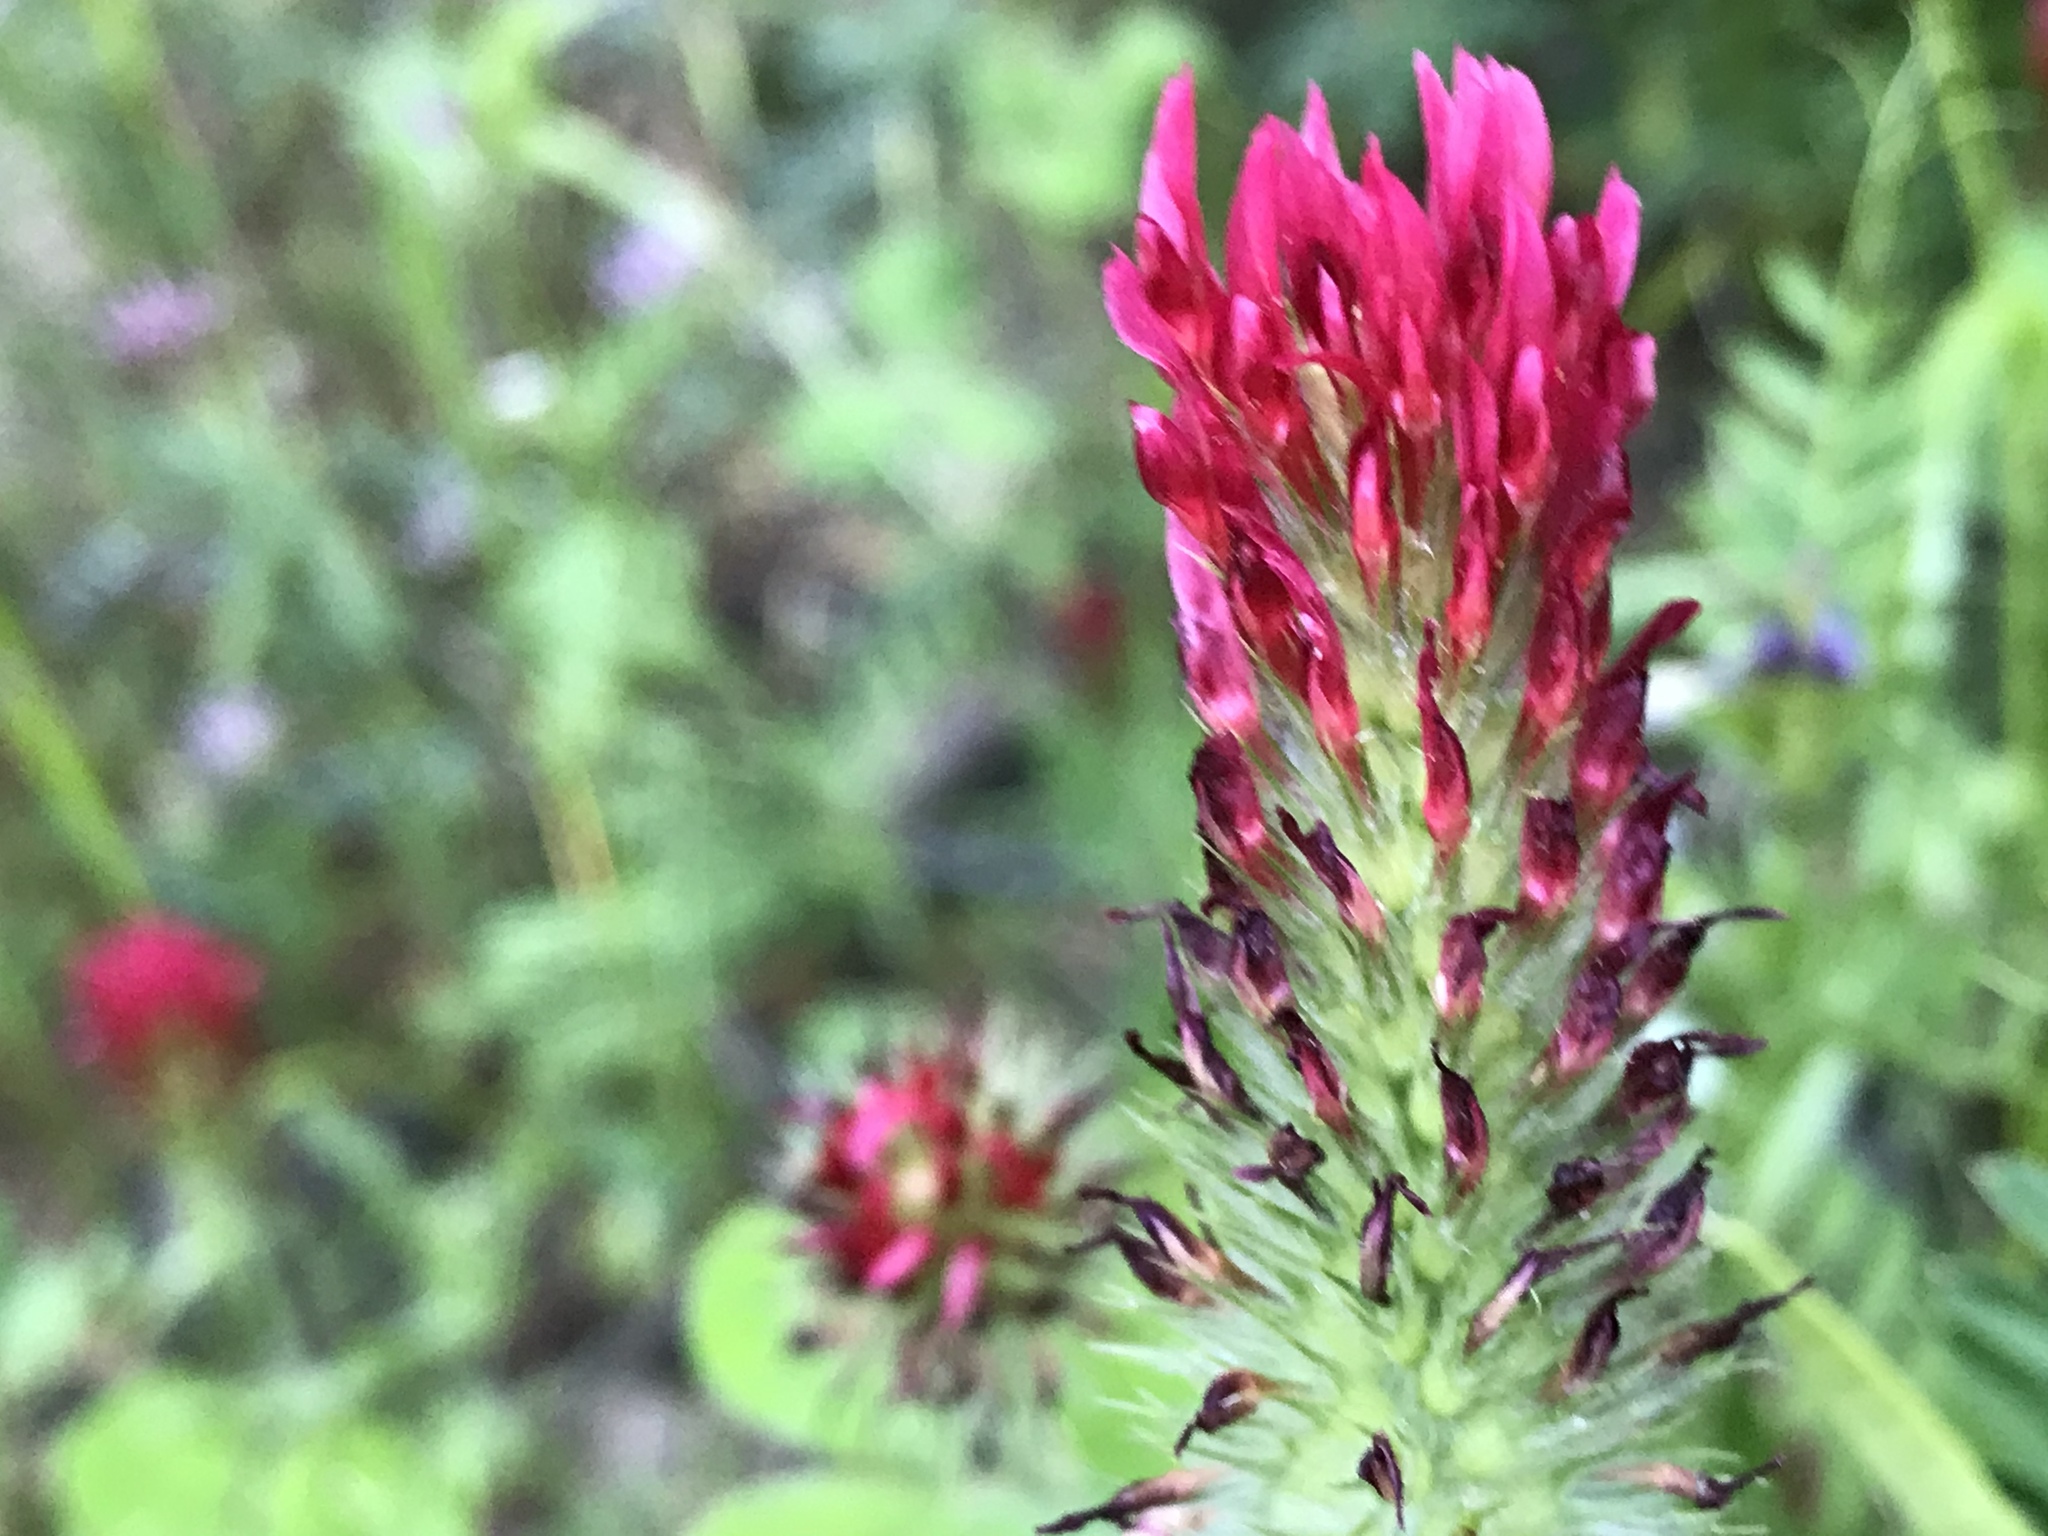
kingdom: Plantae
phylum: Tracheophyta
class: Magnoliopsida
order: Fabales
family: Fabaceae
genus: Trifolium
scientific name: Trifolium incarnatum
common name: Crimson clover
